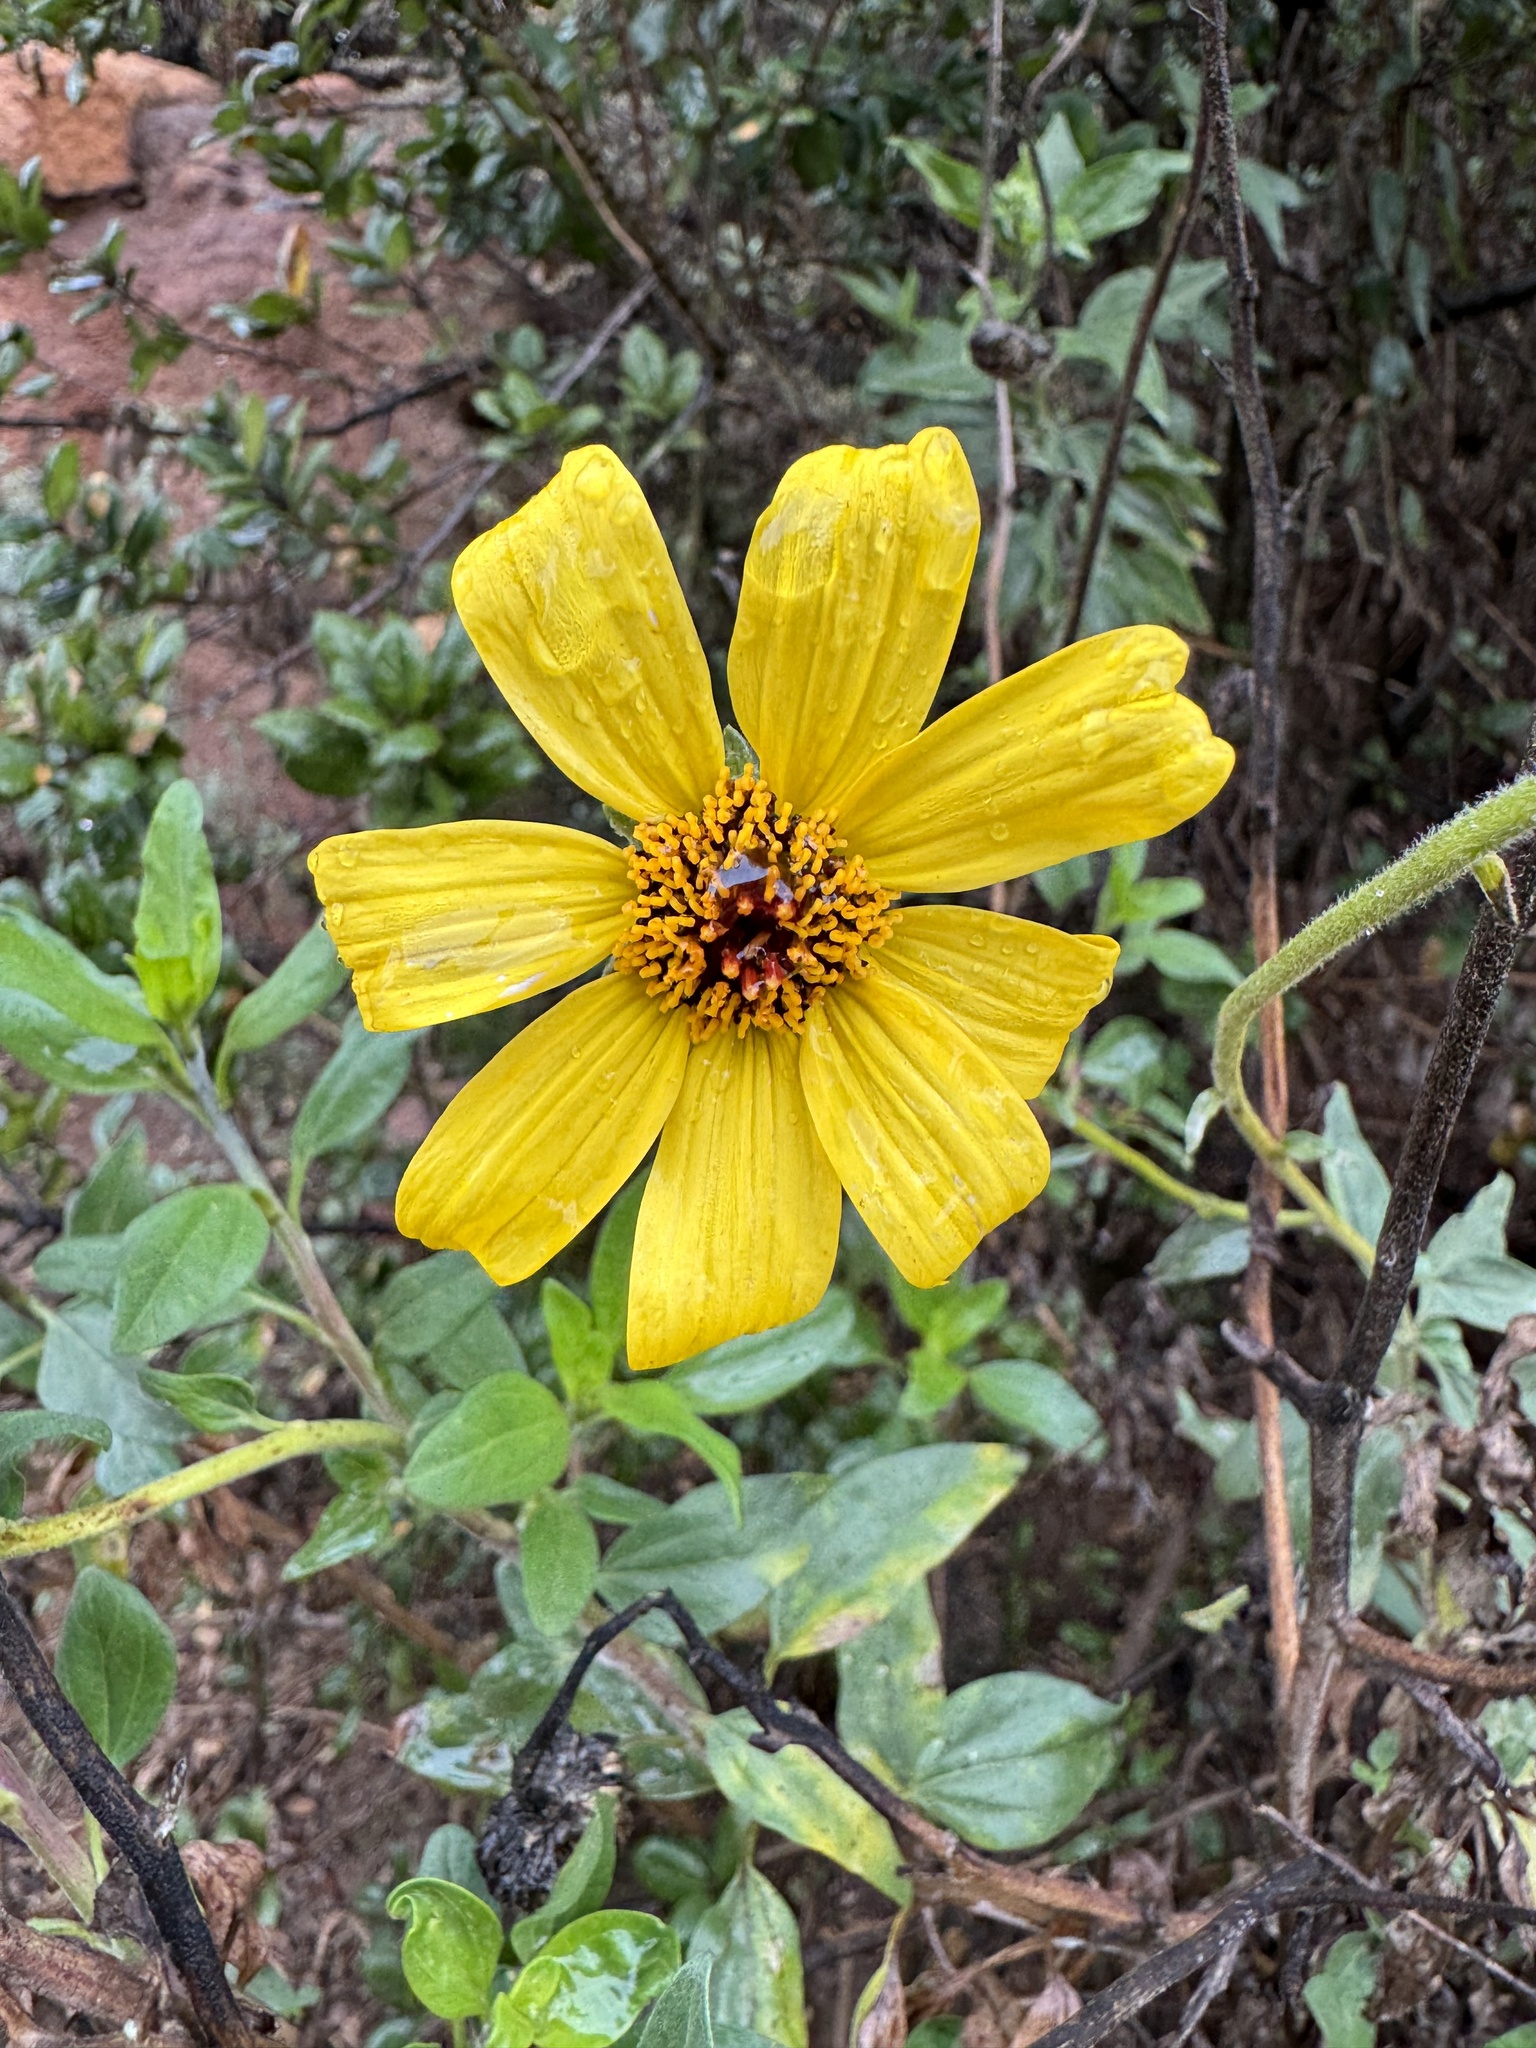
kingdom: Plantae
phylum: Tracheophyta
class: Magnoliopsida
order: Asterales
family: Asteraceae
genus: Encelia
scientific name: Encelia californica
